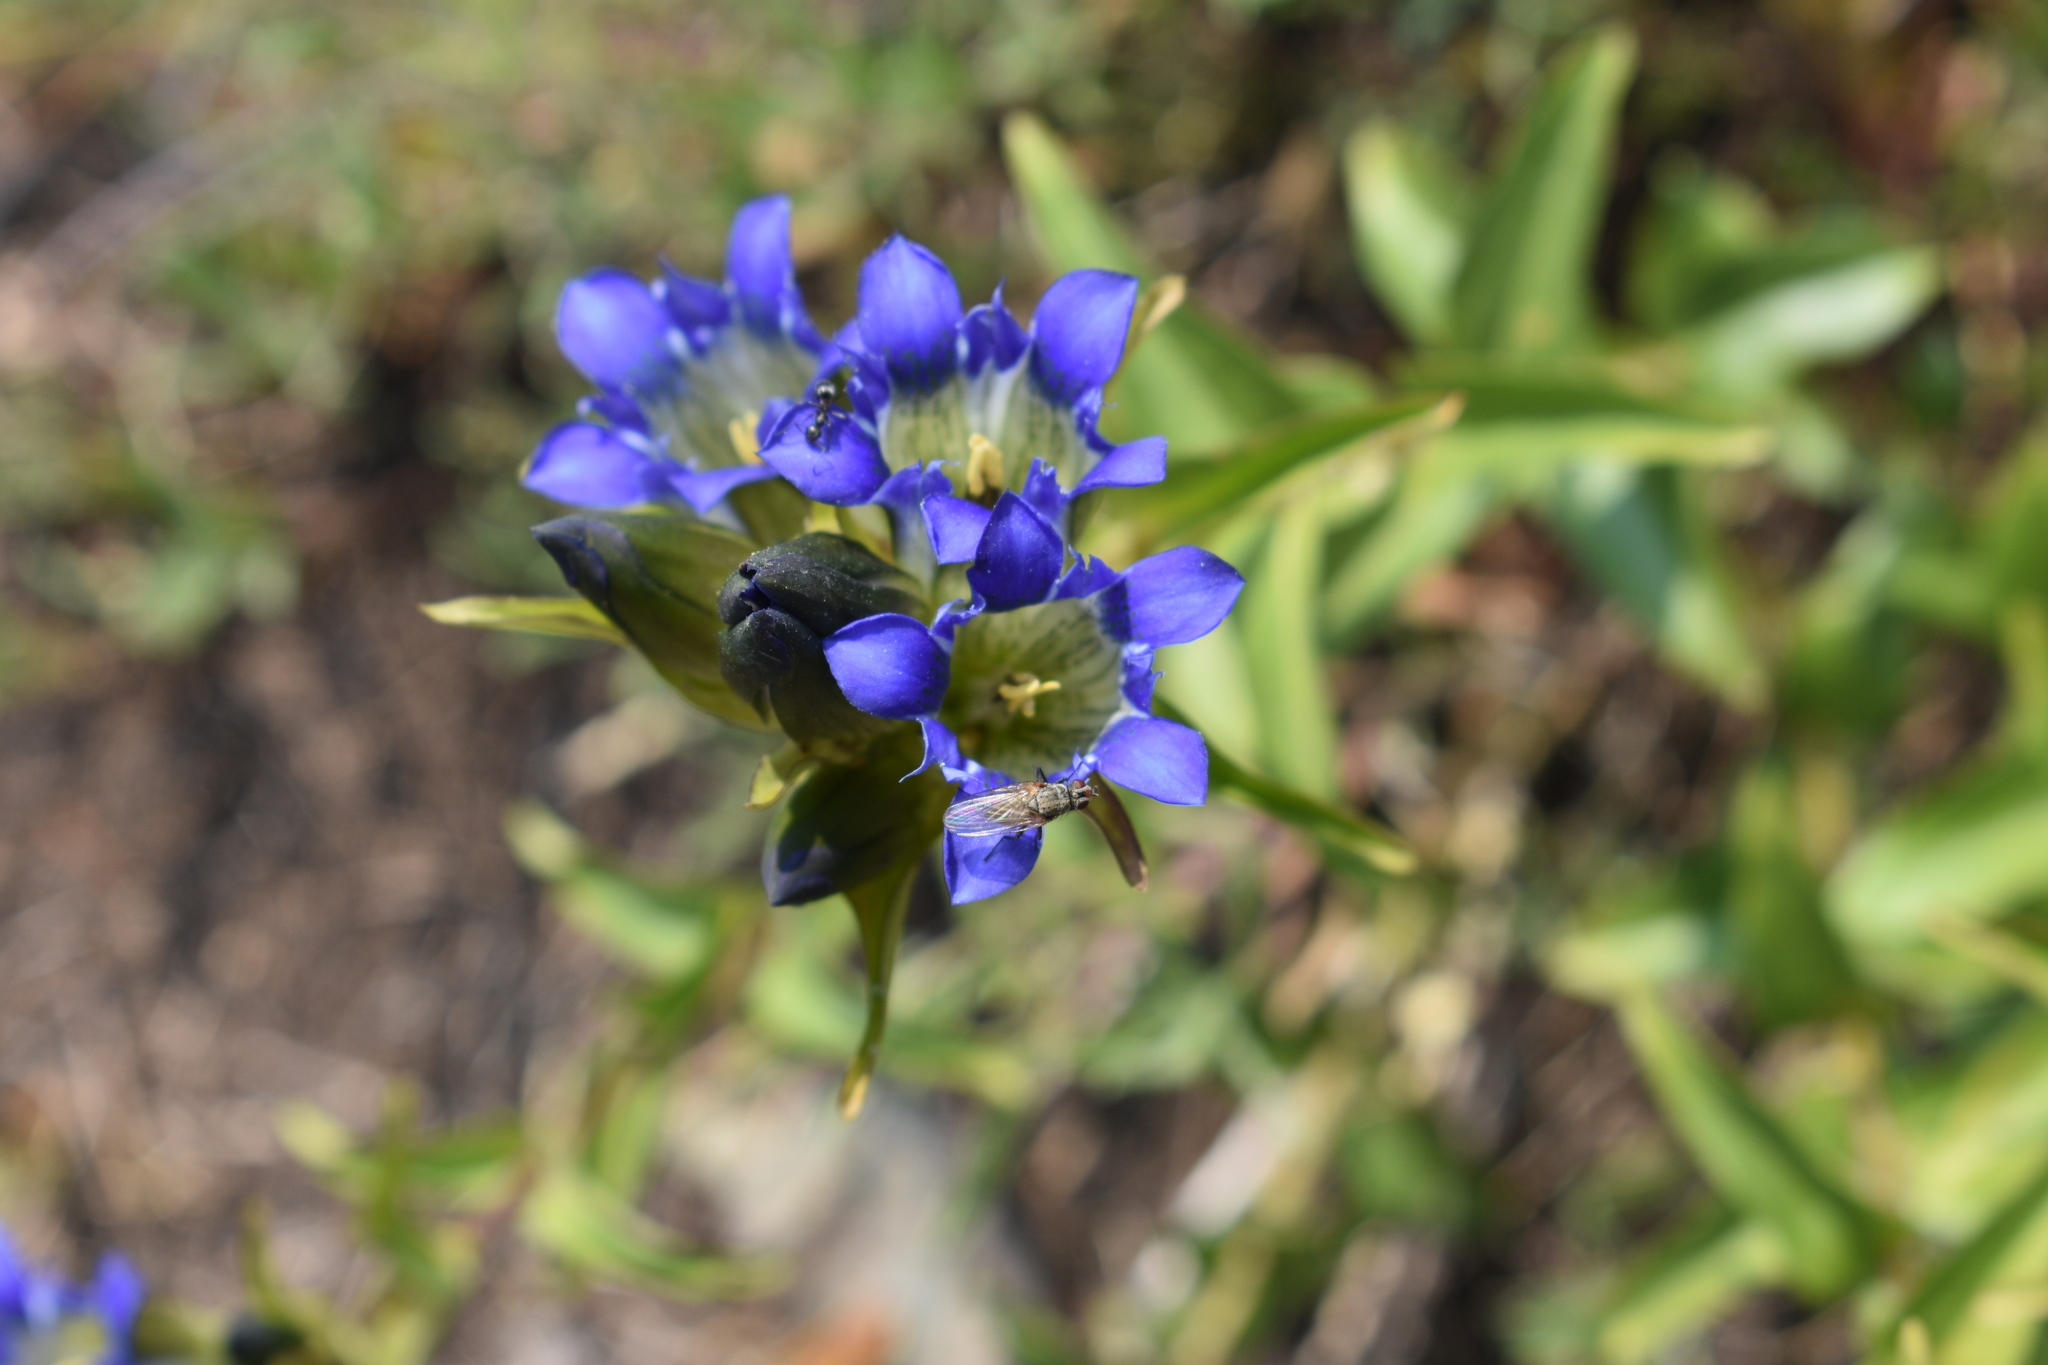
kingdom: Plantae
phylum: Tracheophyta
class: Magnoliopsida
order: Gentianales
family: Gentianaceae
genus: Gentiana
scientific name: Gentiana parryi
